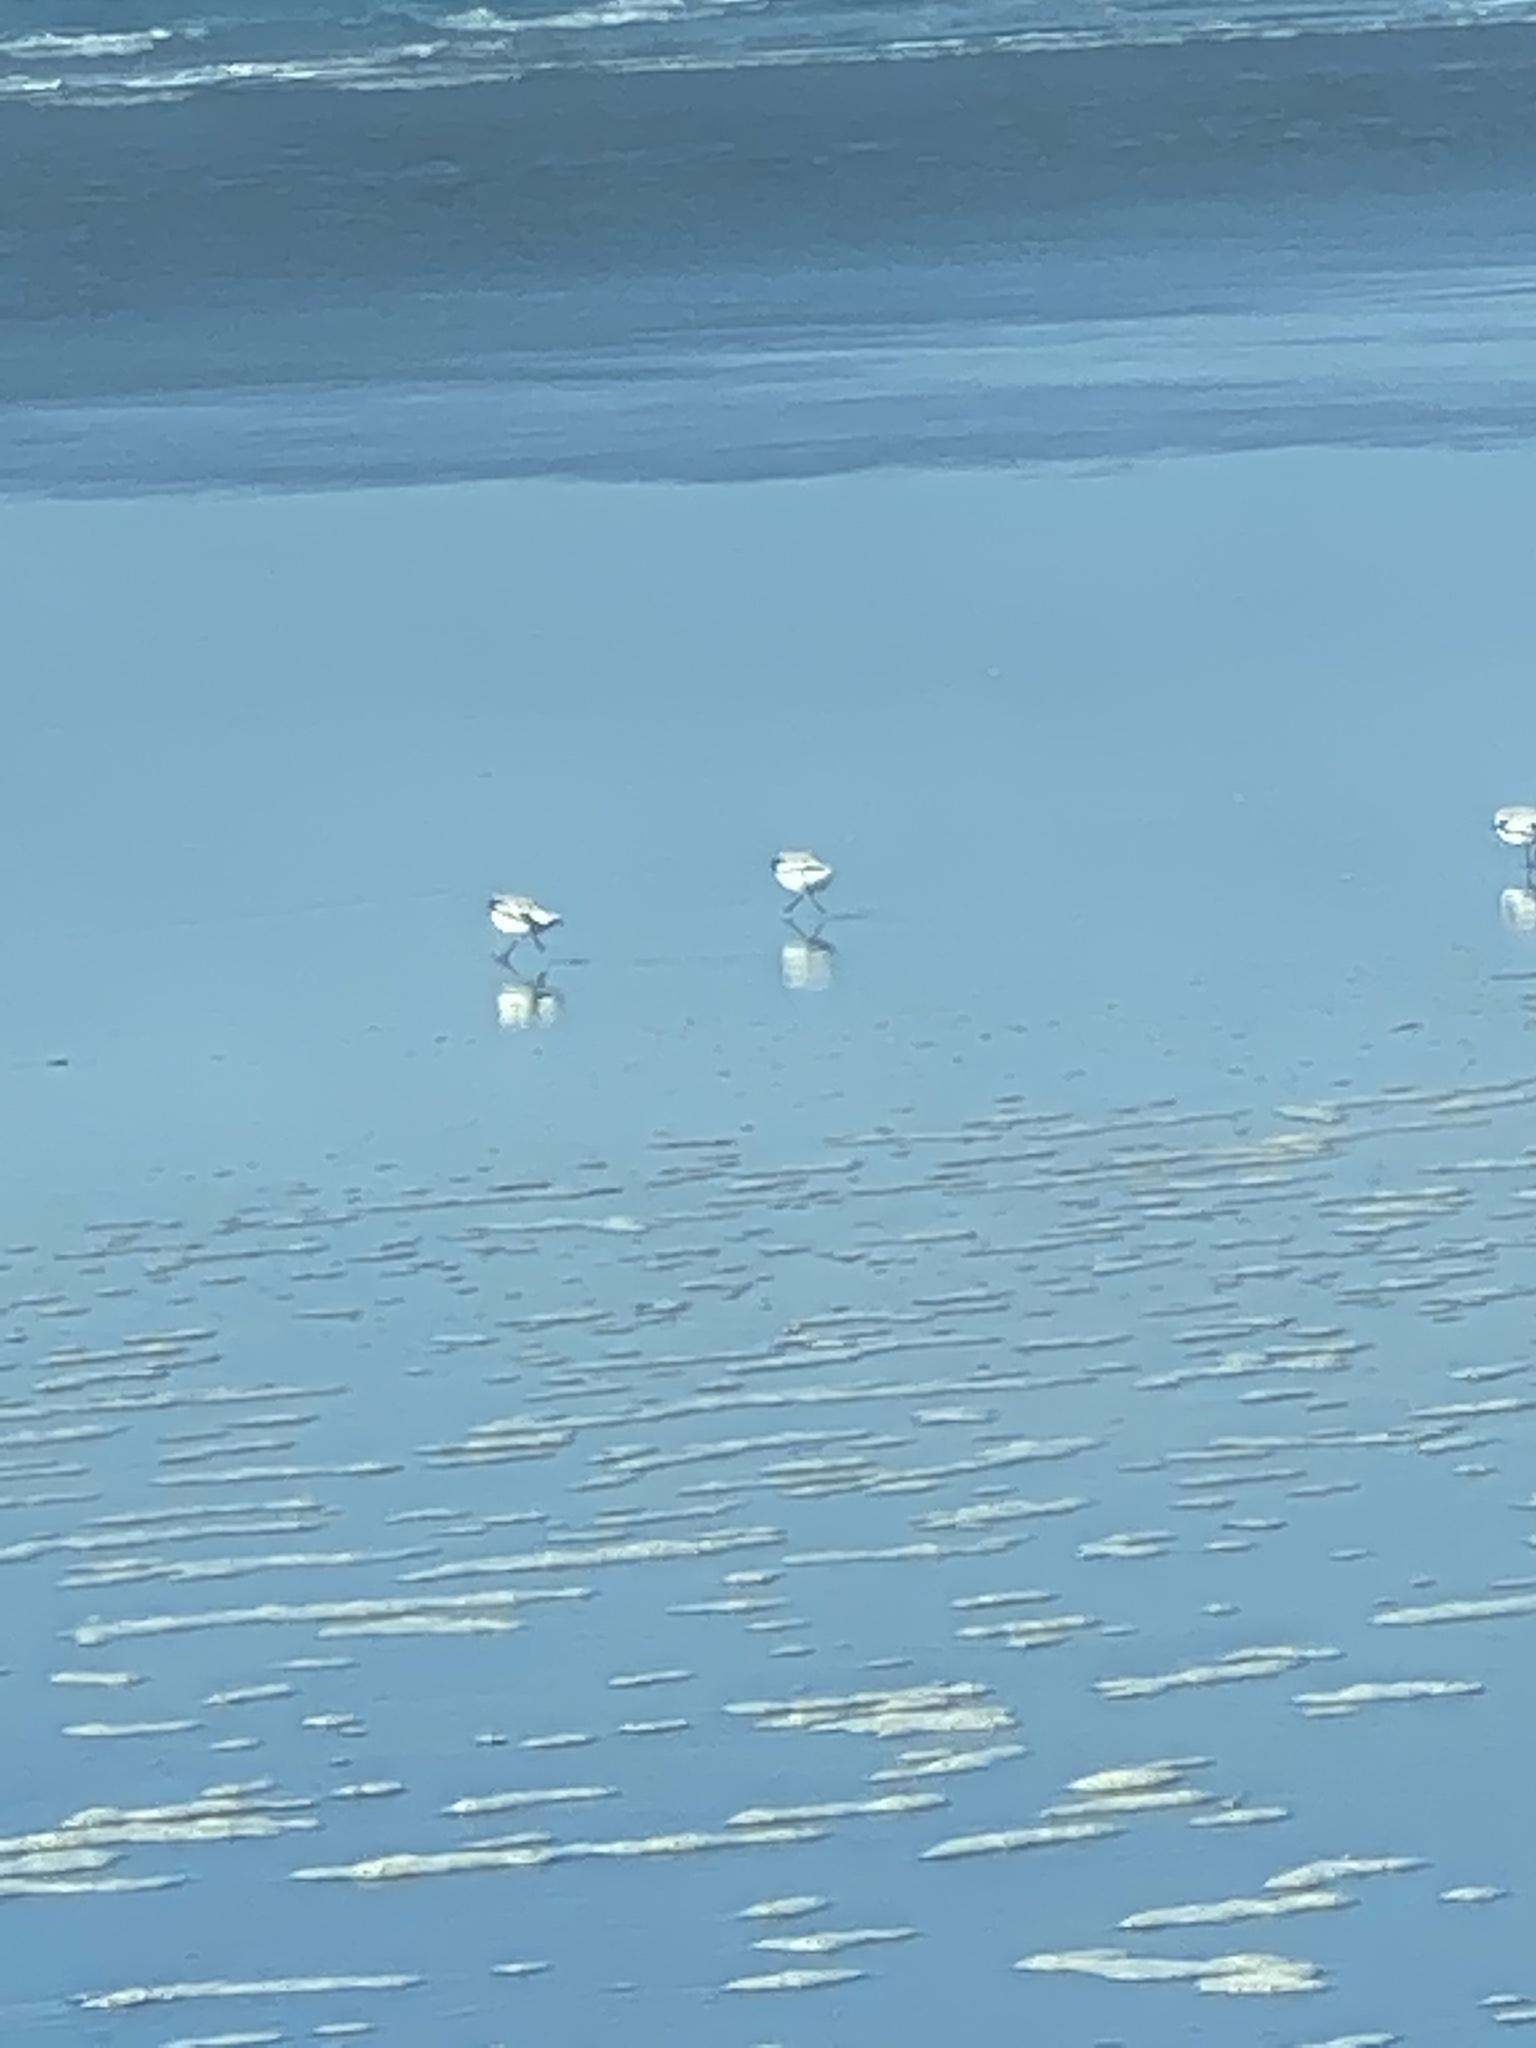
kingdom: Animalia
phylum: Chordata
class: Aves
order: Charadriiformes
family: Scolopacidae
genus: Calidris
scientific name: Calidris alba
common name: Sanderling
